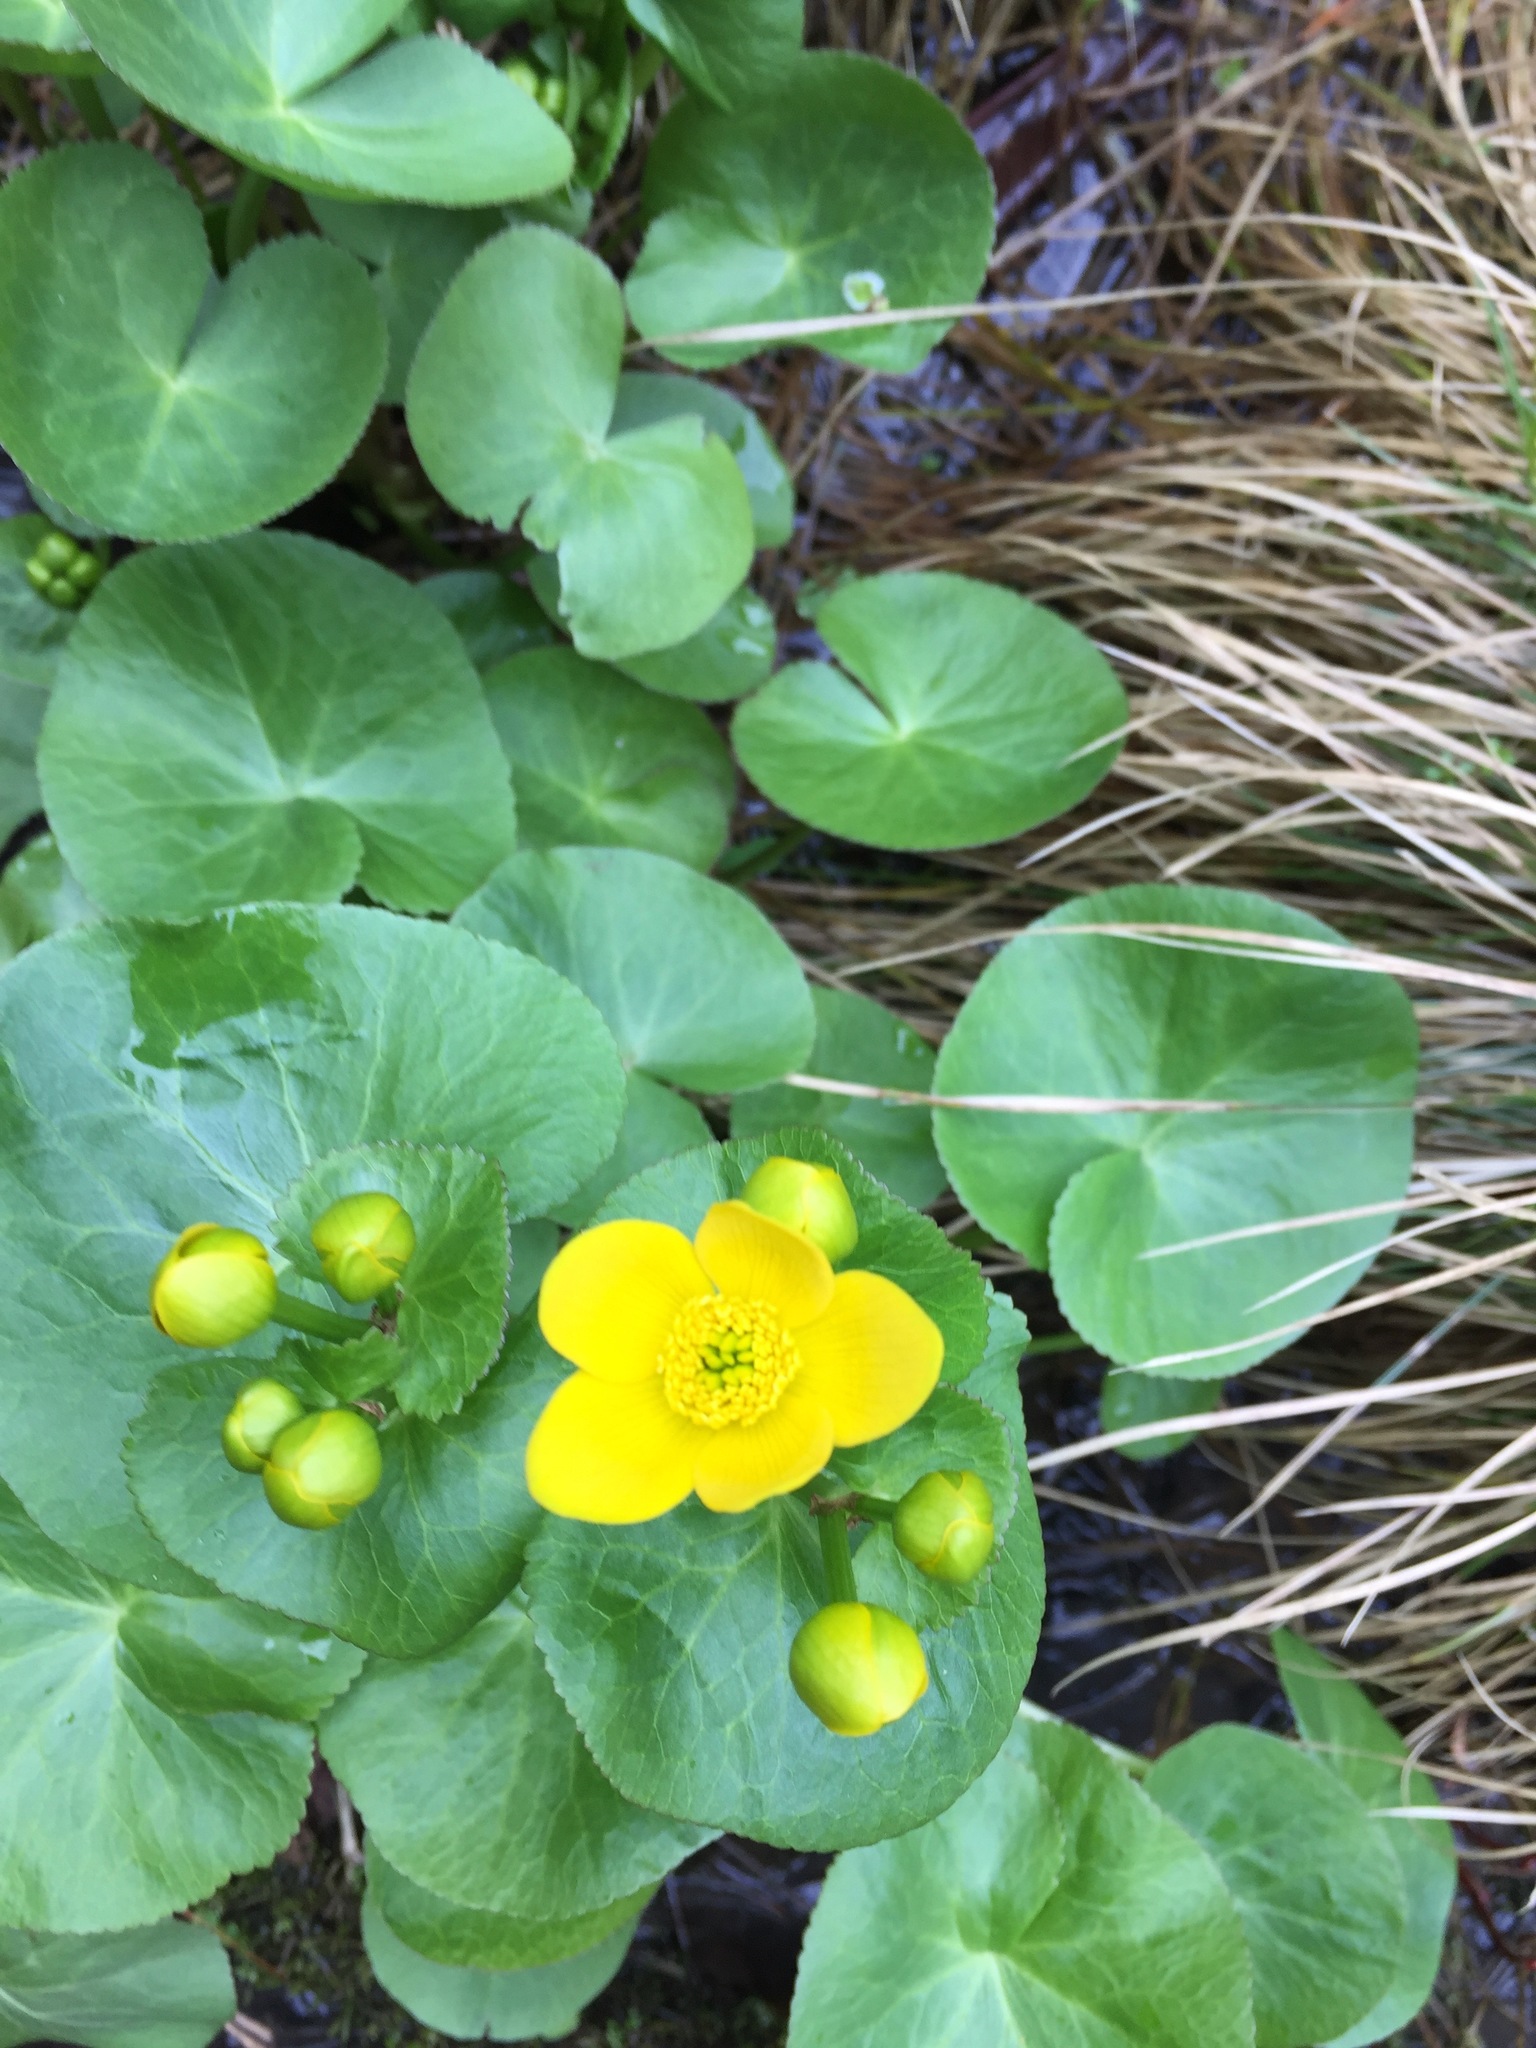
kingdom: Plantae
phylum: Tracheophyta
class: Magnoliopsida
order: Ranunculales
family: Ranunculaceae
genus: Caltha
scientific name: Caltha palustris
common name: Marsh marigold
